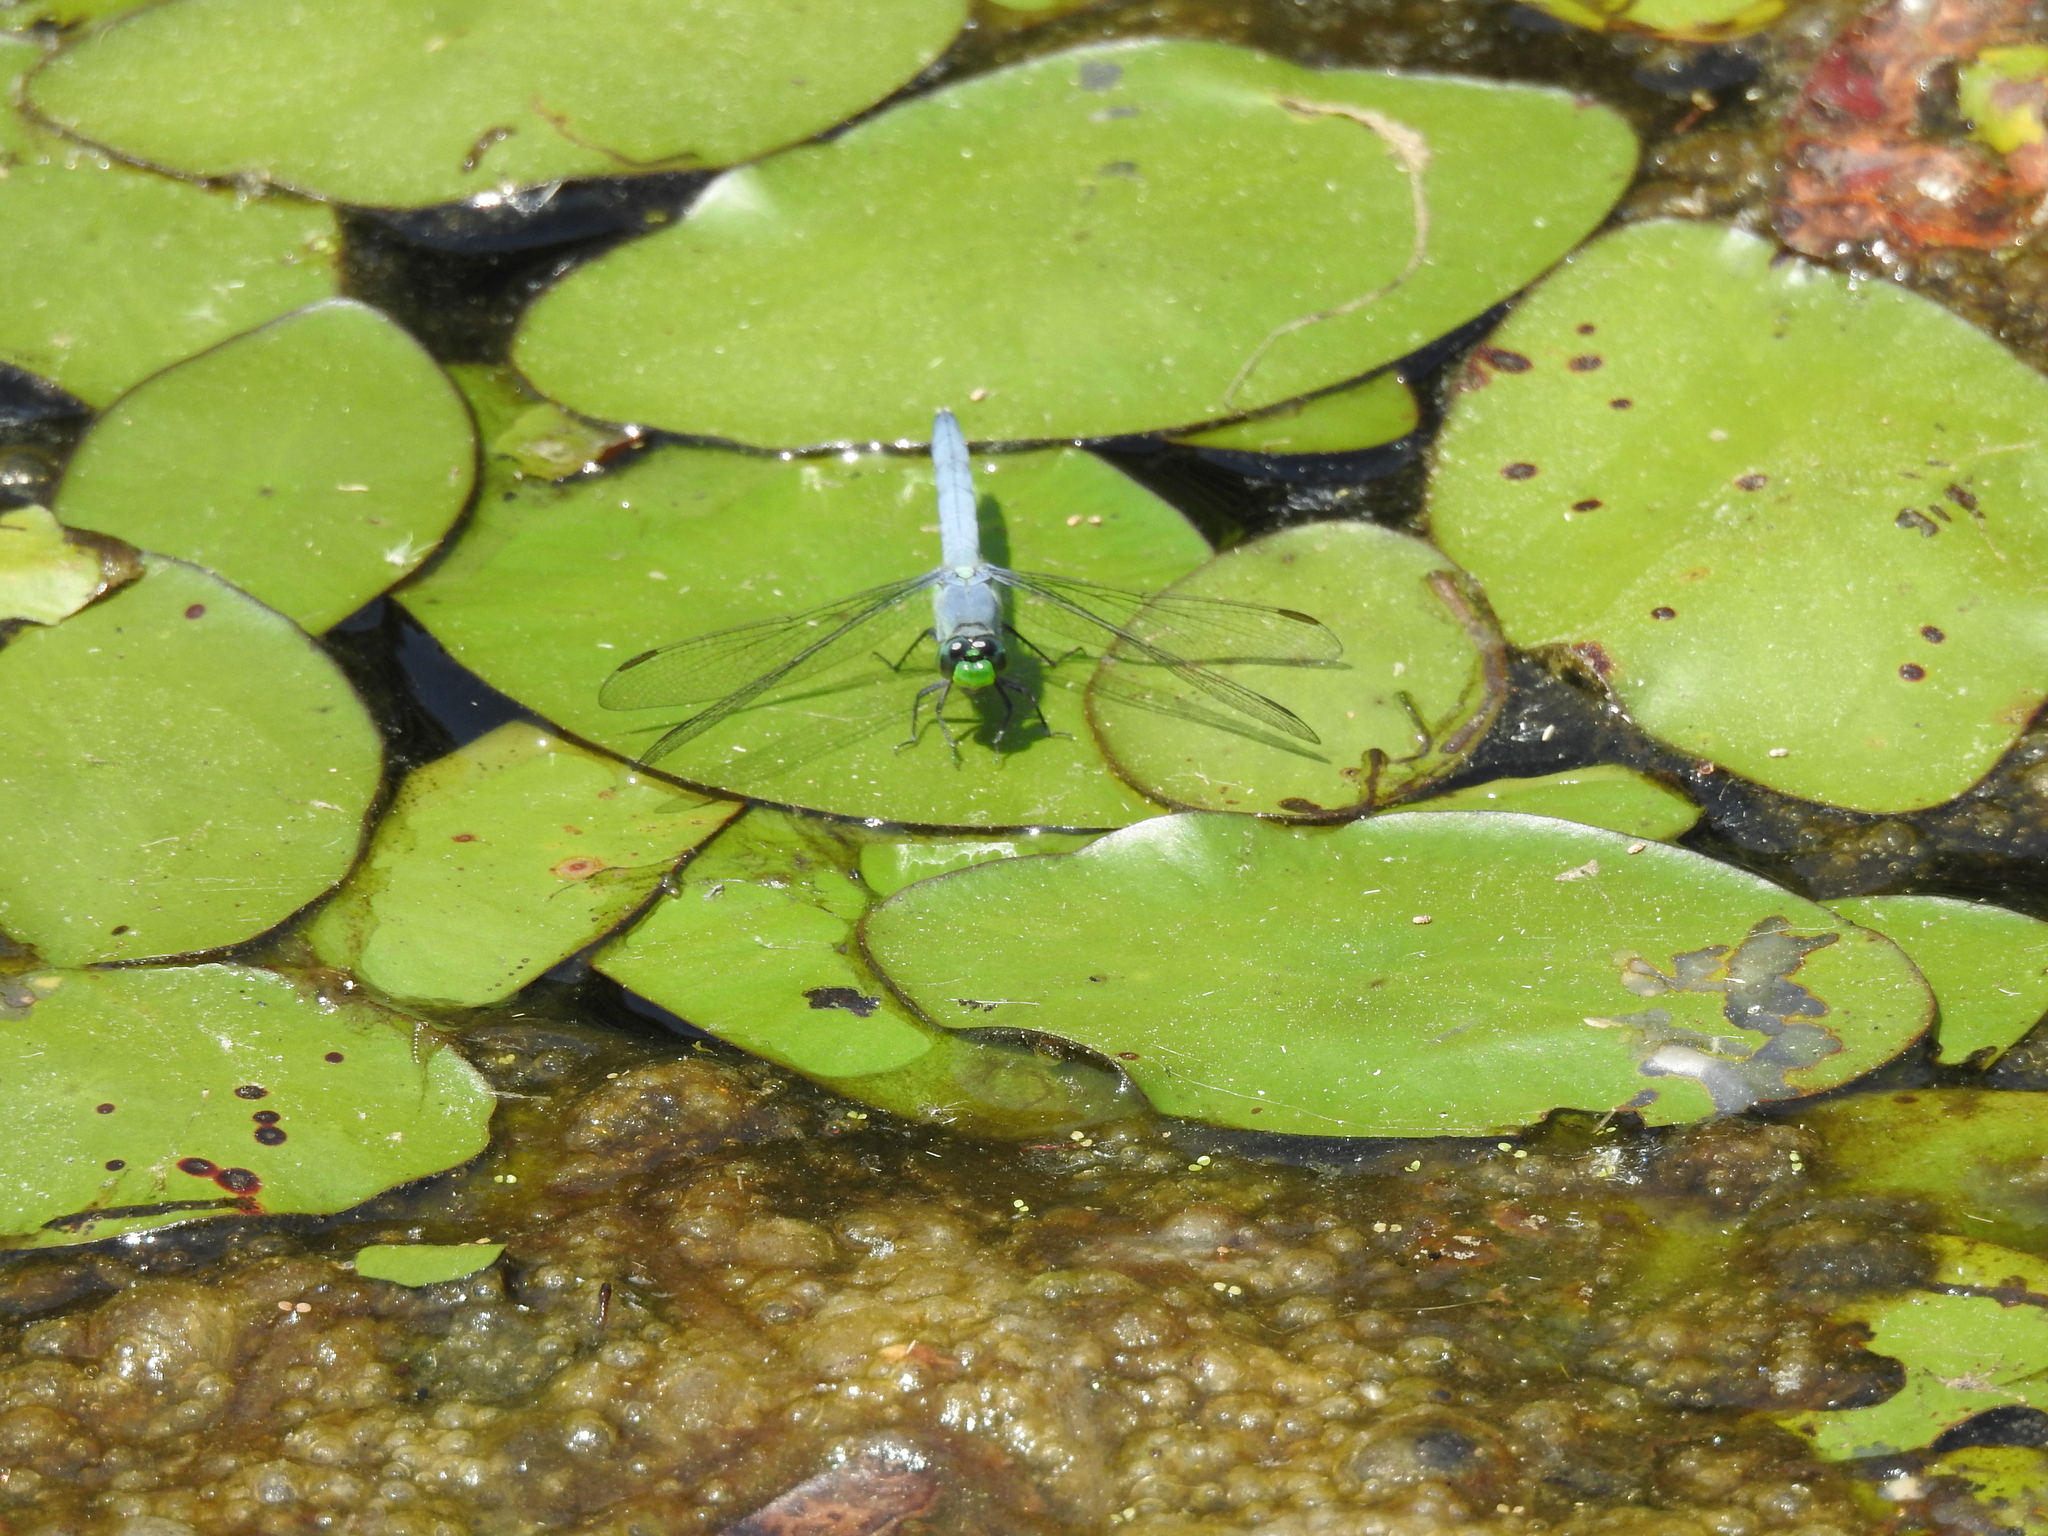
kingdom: Animalia
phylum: Arthropoda
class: Insecta
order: Odonata
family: Libellulidae
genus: Erythemis
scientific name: Erythemis simplicicollis
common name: Eastern pondhawk
